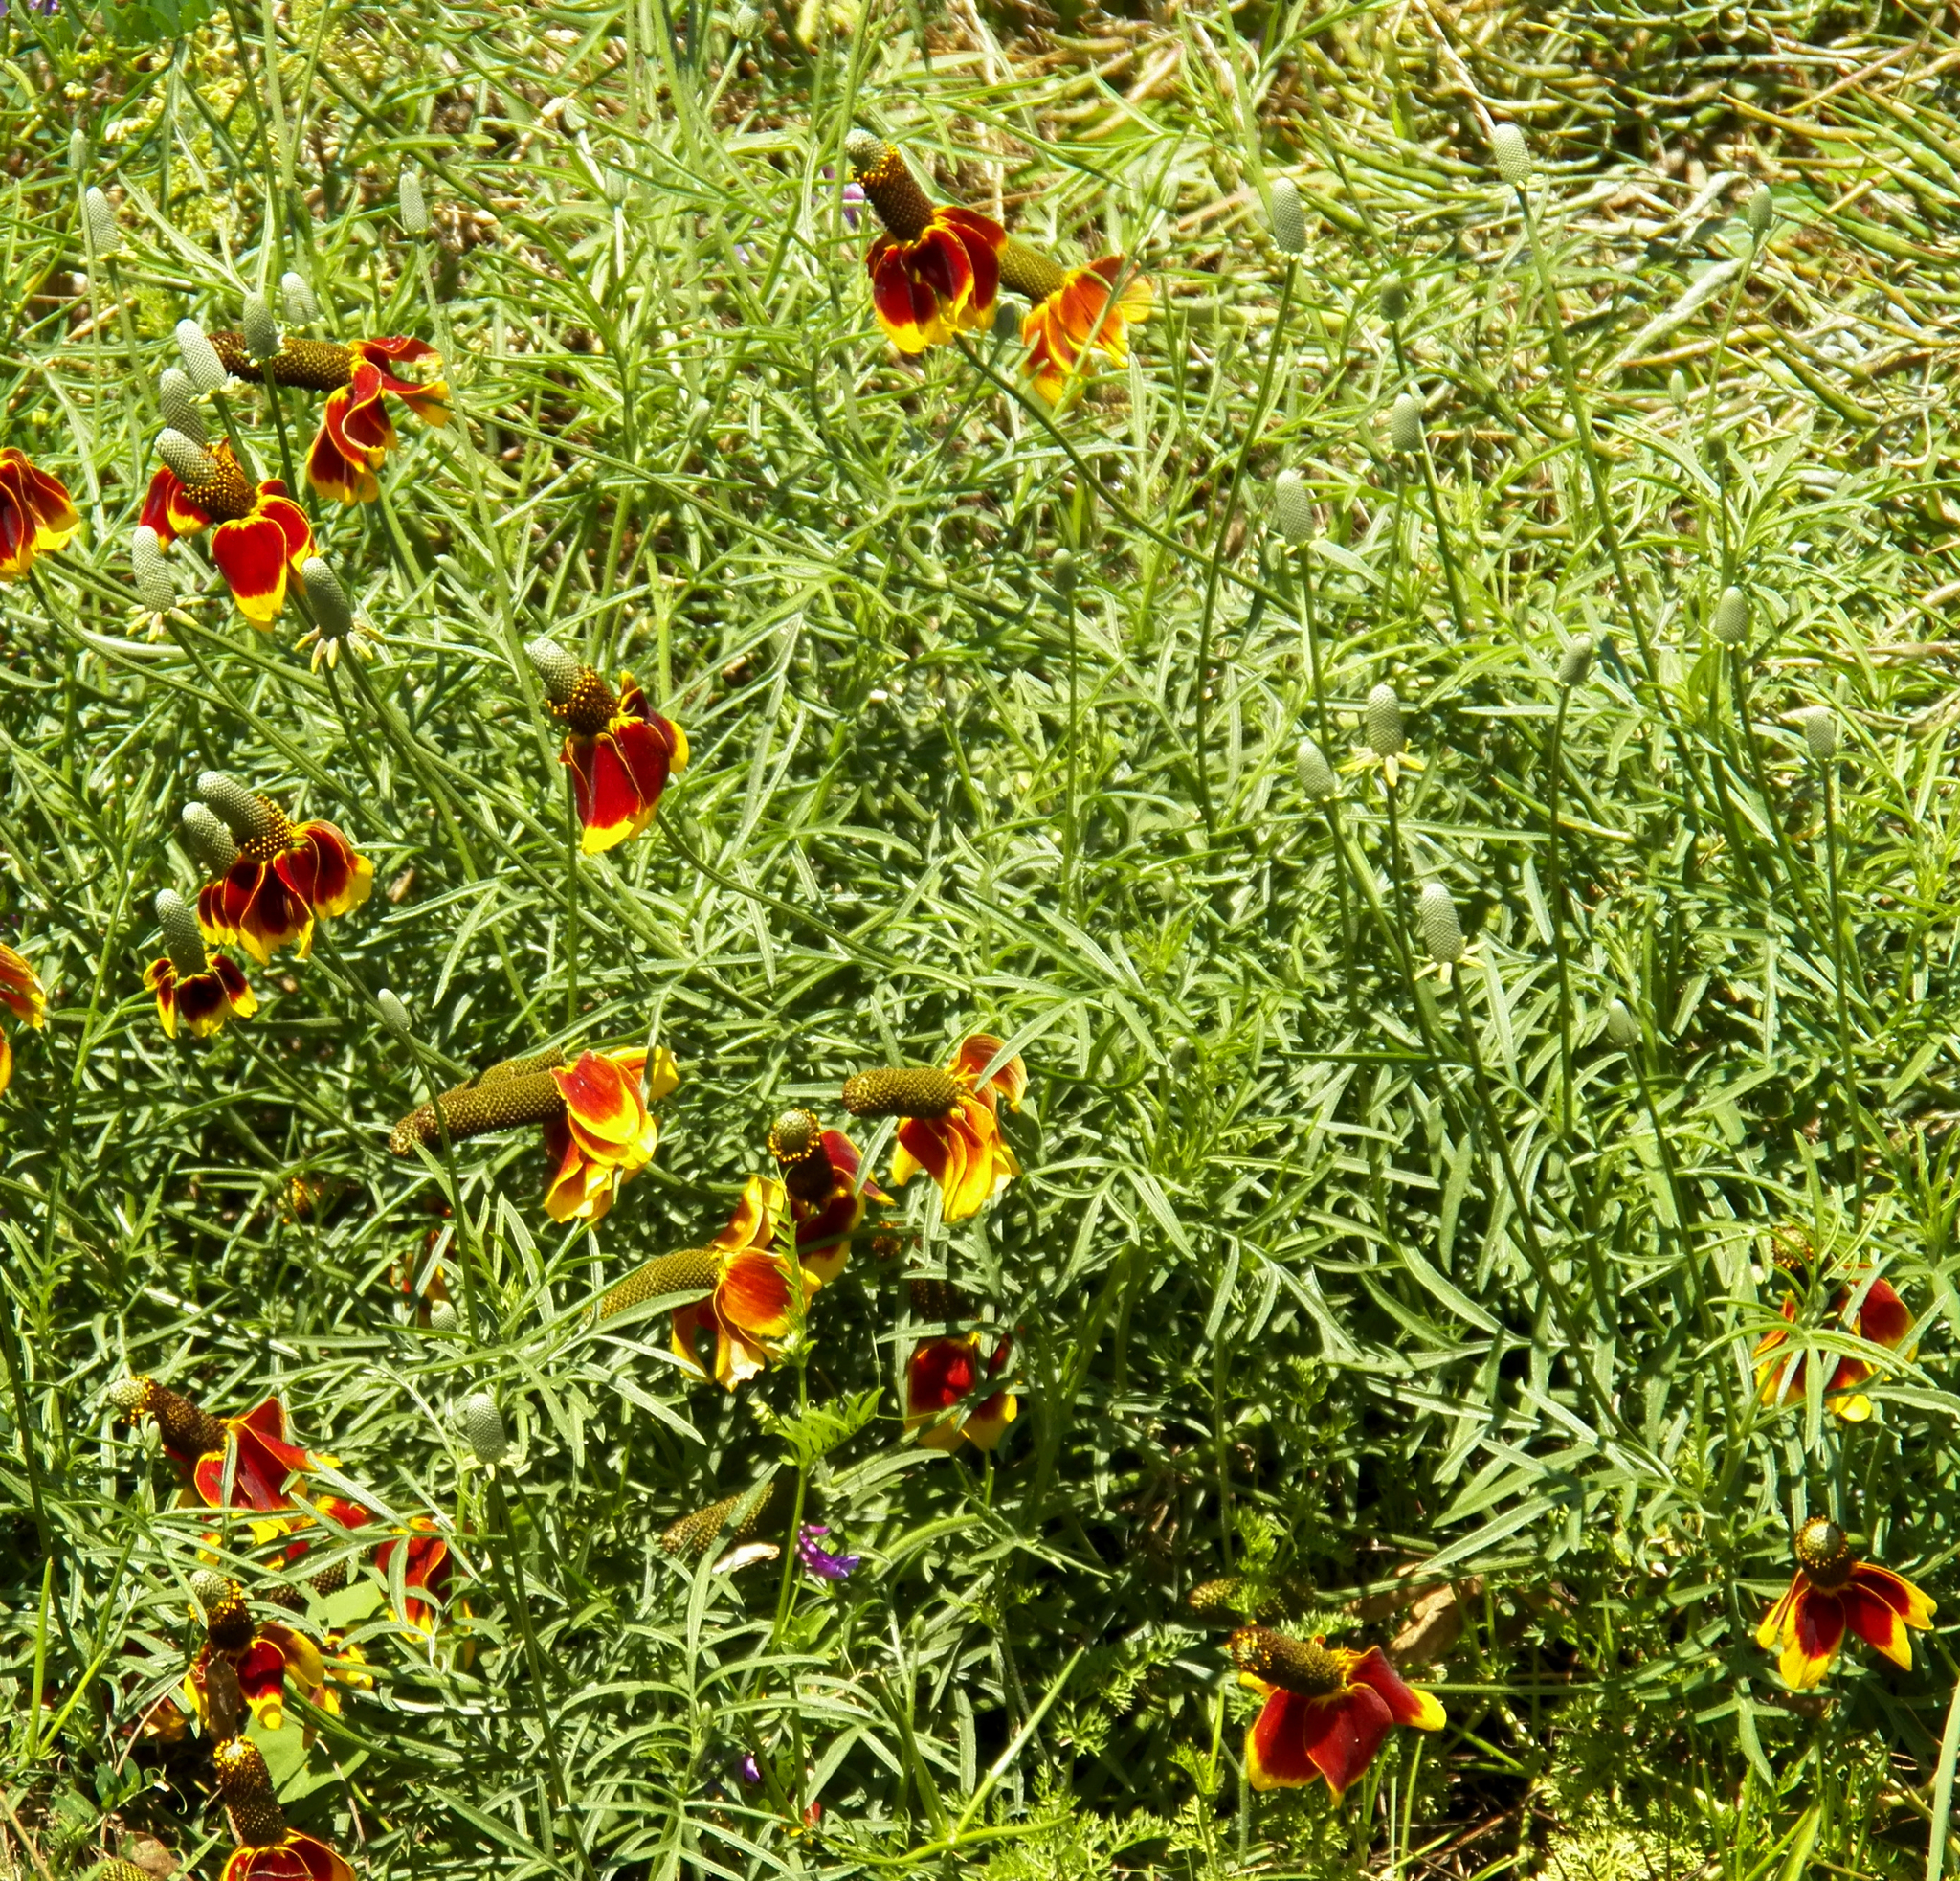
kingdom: Plantae
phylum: Tracheophyta
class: Magnoliopsida
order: Asterales
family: Asteraceae
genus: Ratibida
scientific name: Ratibida columnifera
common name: Prairie coneflower
